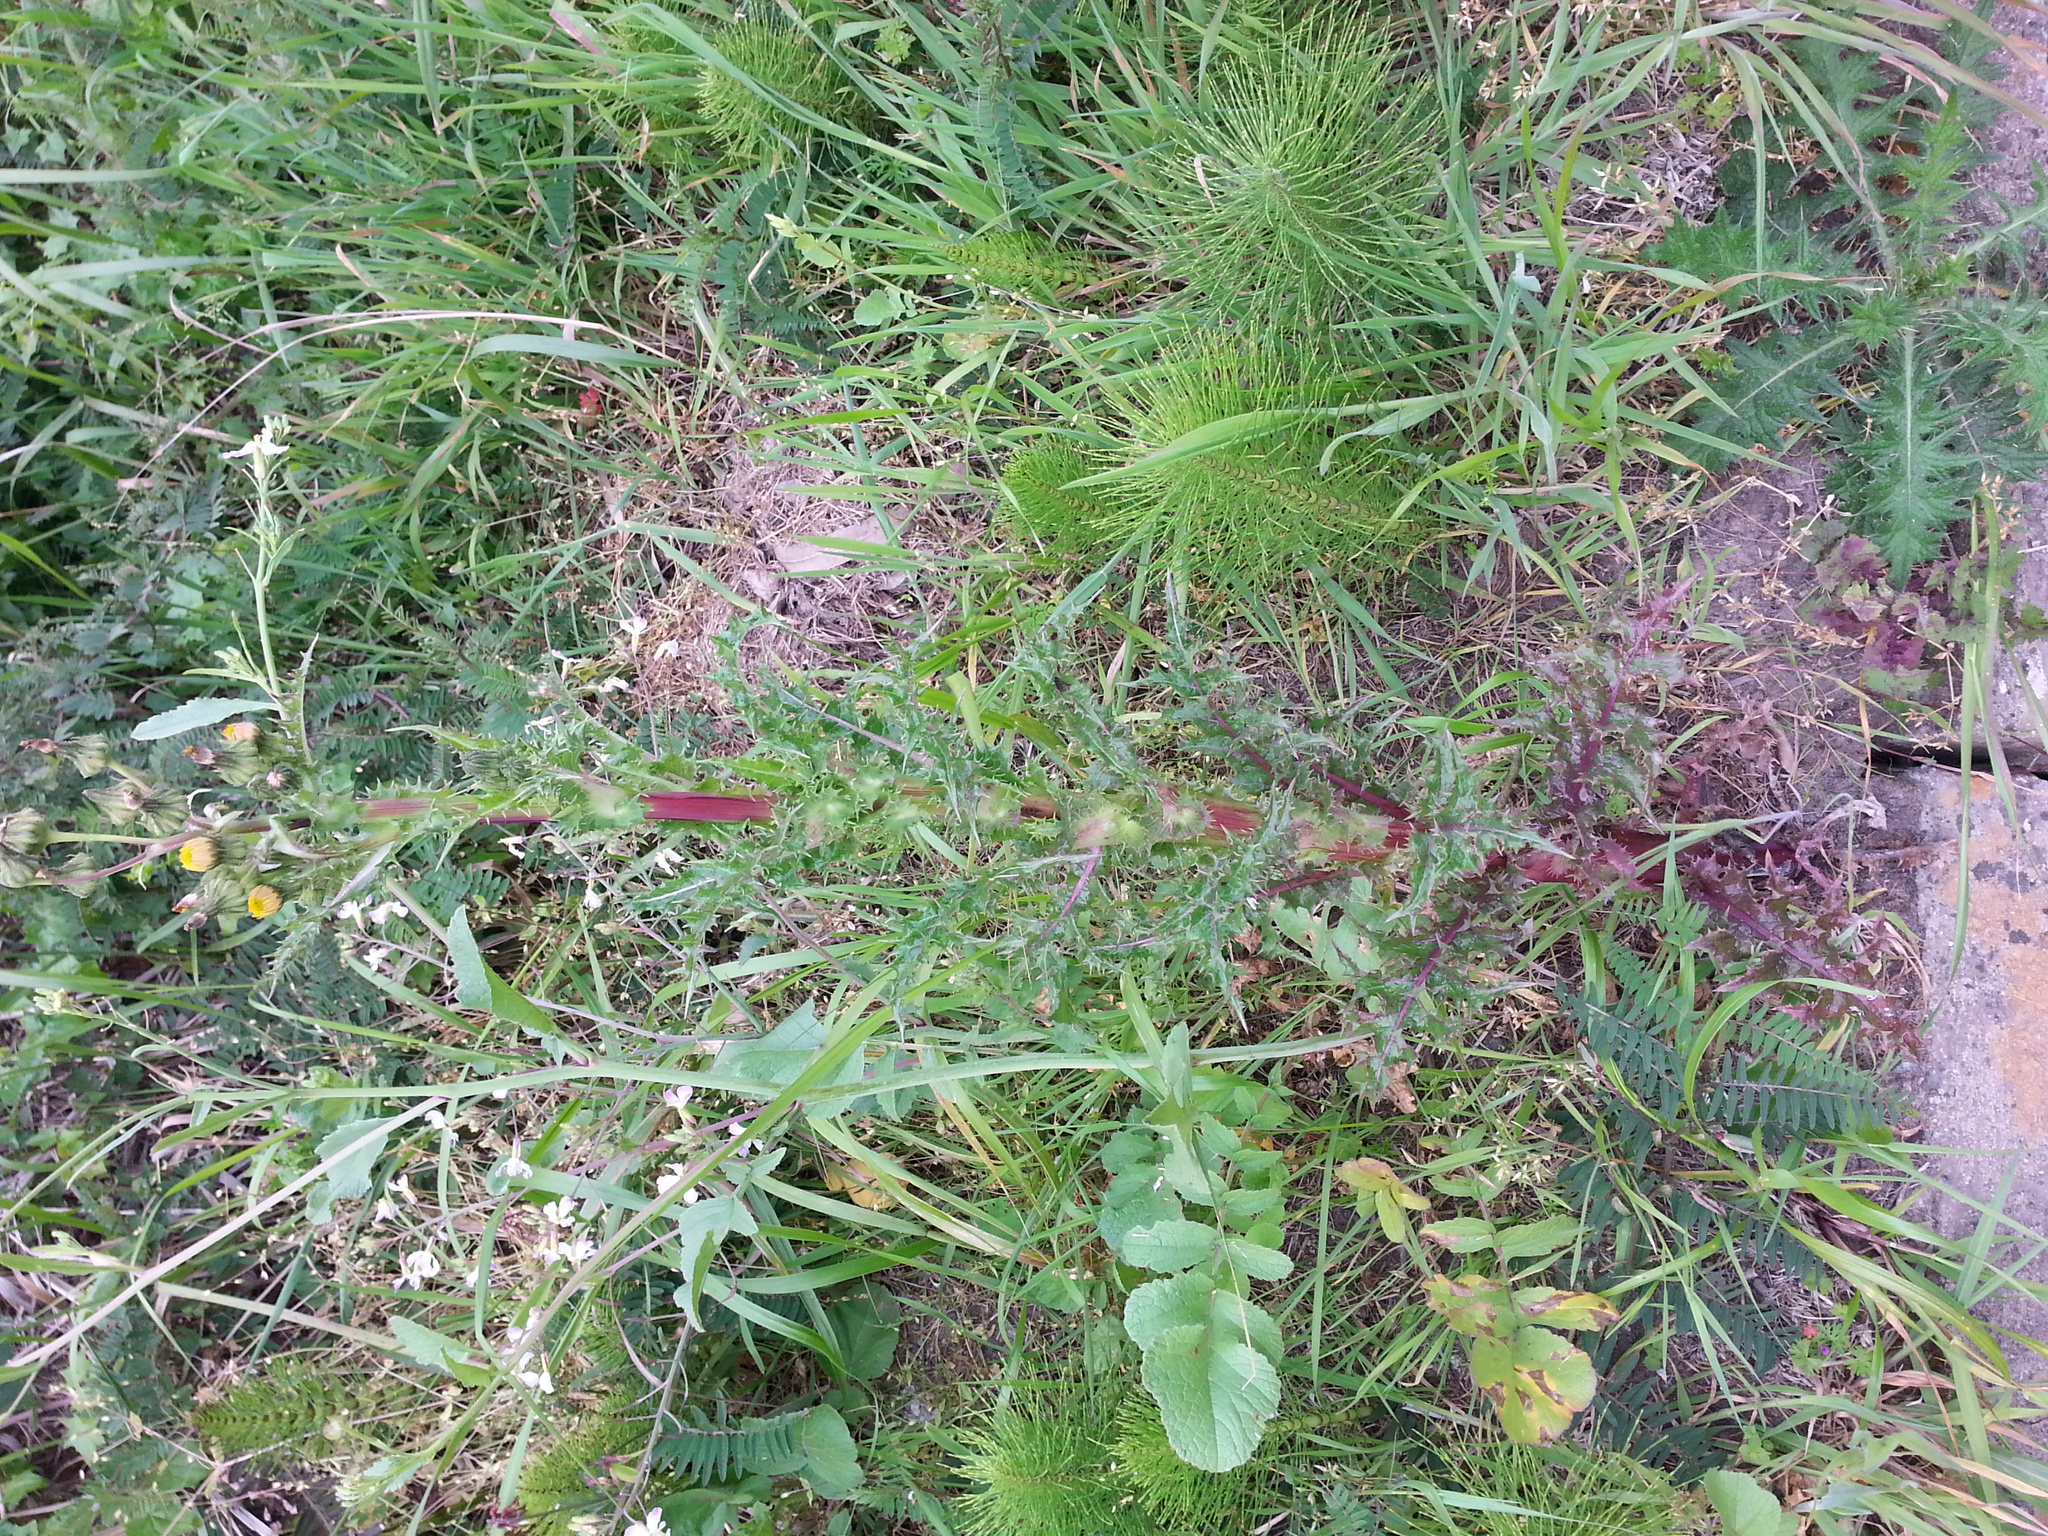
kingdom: Plantae
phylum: Tracheophyta
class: Magnoliopsida
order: Asterales
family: Asteraceae
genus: Sonchus
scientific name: Sonchus asper
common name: Prickly sow-thistle
